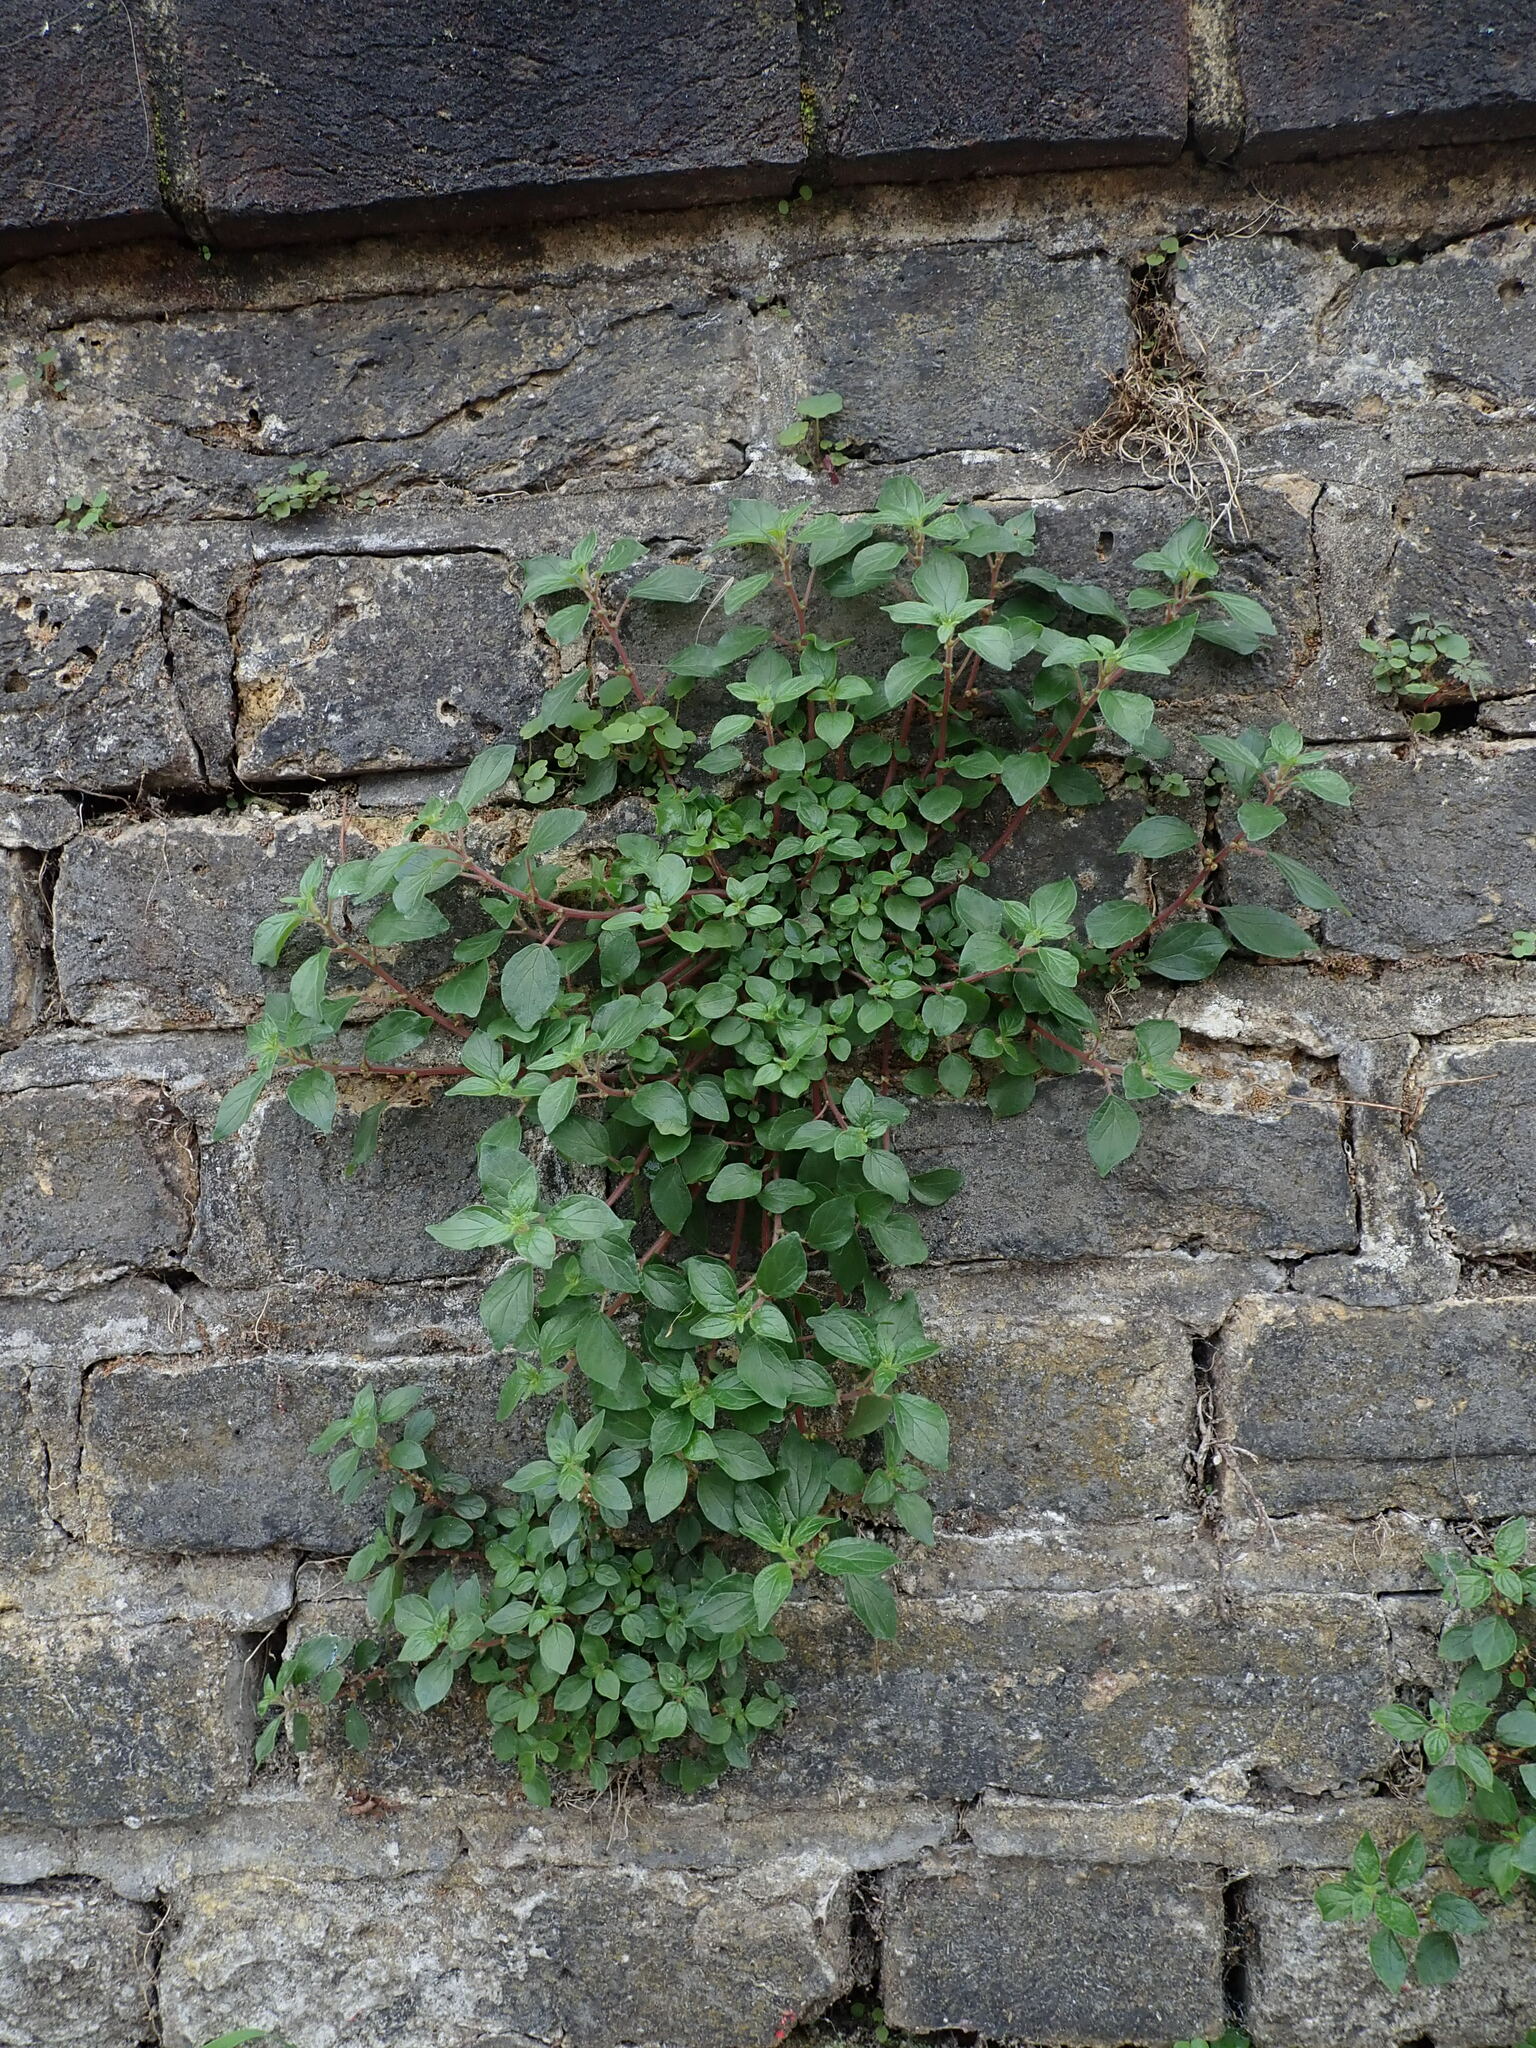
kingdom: Plantae
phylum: Tracheophyta
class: Magnoliopsida
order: Rosales
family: Urticaceae
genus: Parietaria
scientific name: Parietaria judaica
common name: Pellitory-of-the-wall
